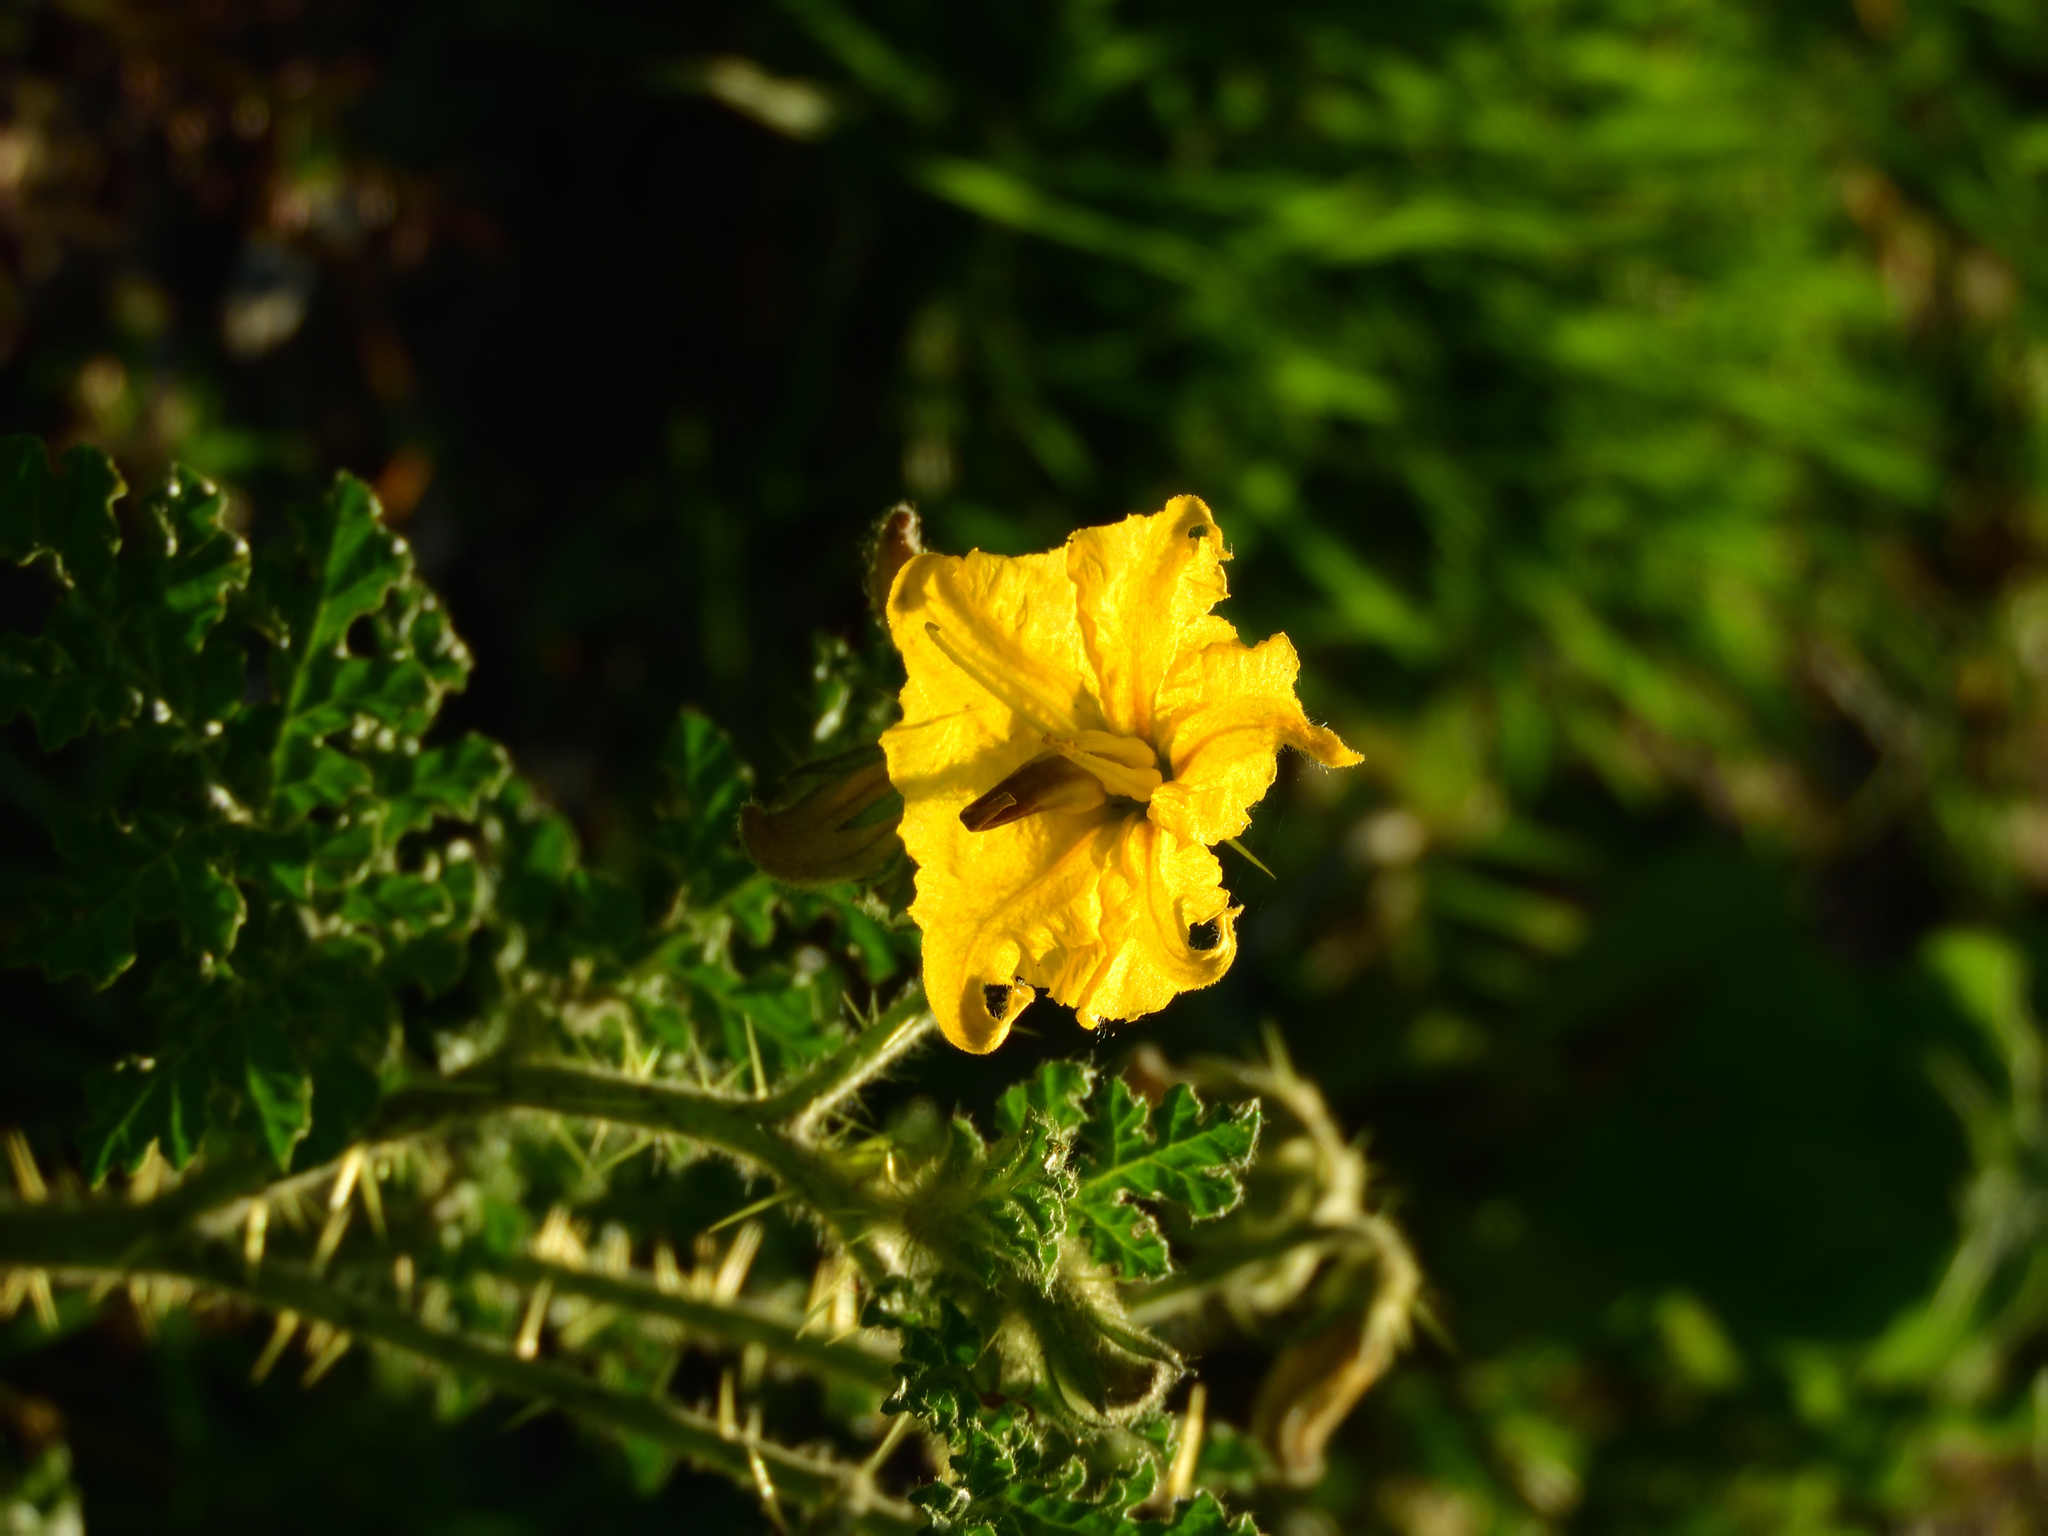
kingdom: Plantae
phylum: Tracheophyta
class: Magnoliopsida
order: Solanales
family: Solanaceae
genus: Solanum
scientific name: Solanum angustifolium
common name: Buffalobur nightshade
